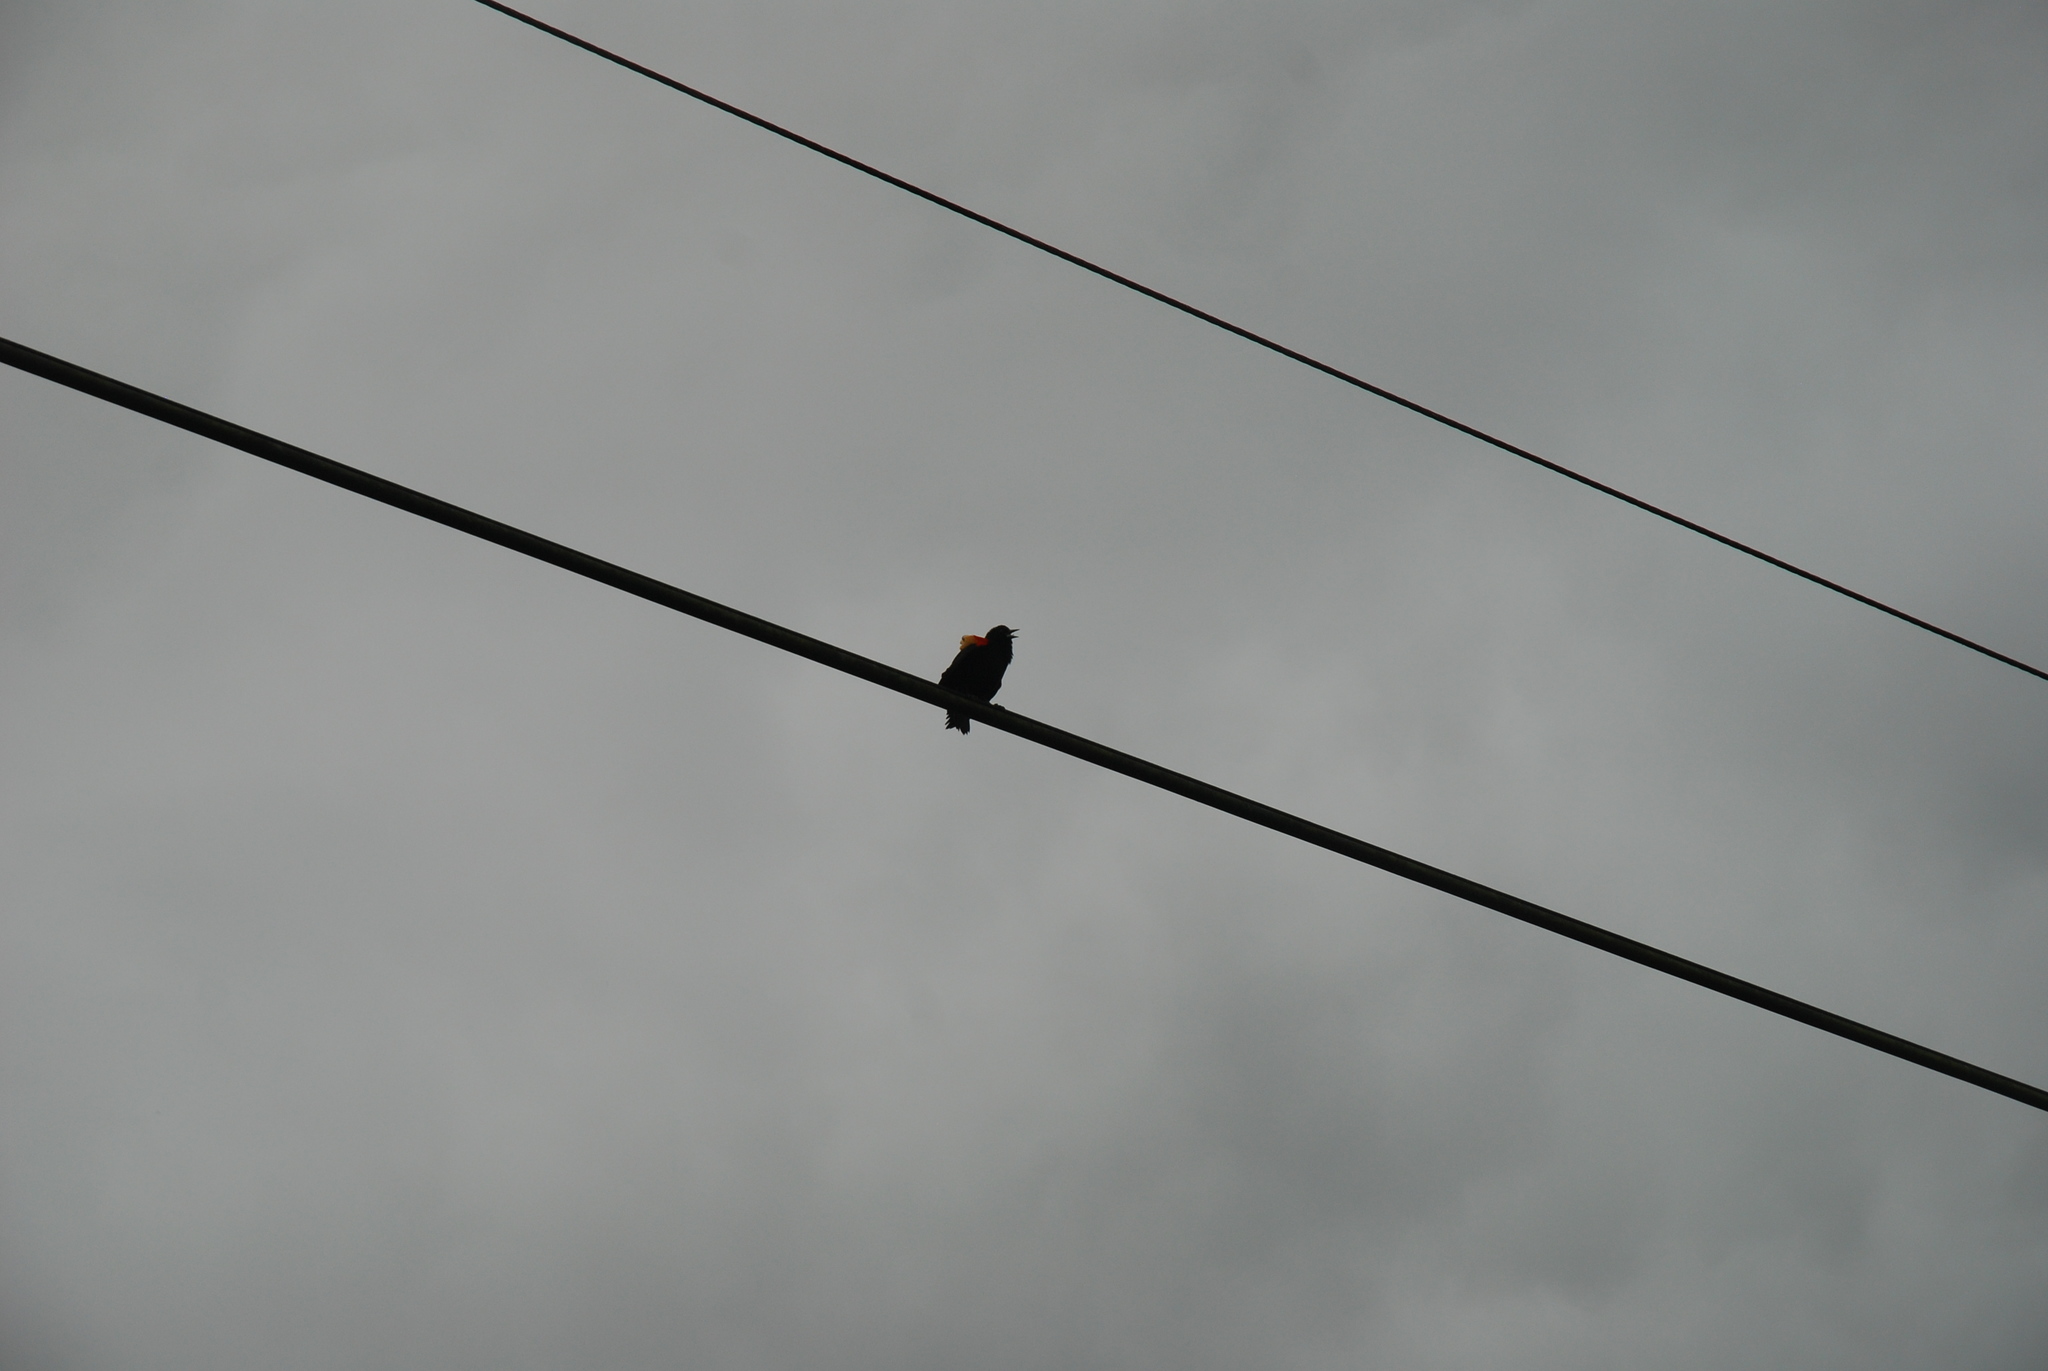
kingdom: Animalia
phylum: Chordata
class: Aves
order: Passeriformes
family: Icteridae
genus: Agelaius
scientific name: Agelaius phoeniceus
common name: Red-winged blackbird
